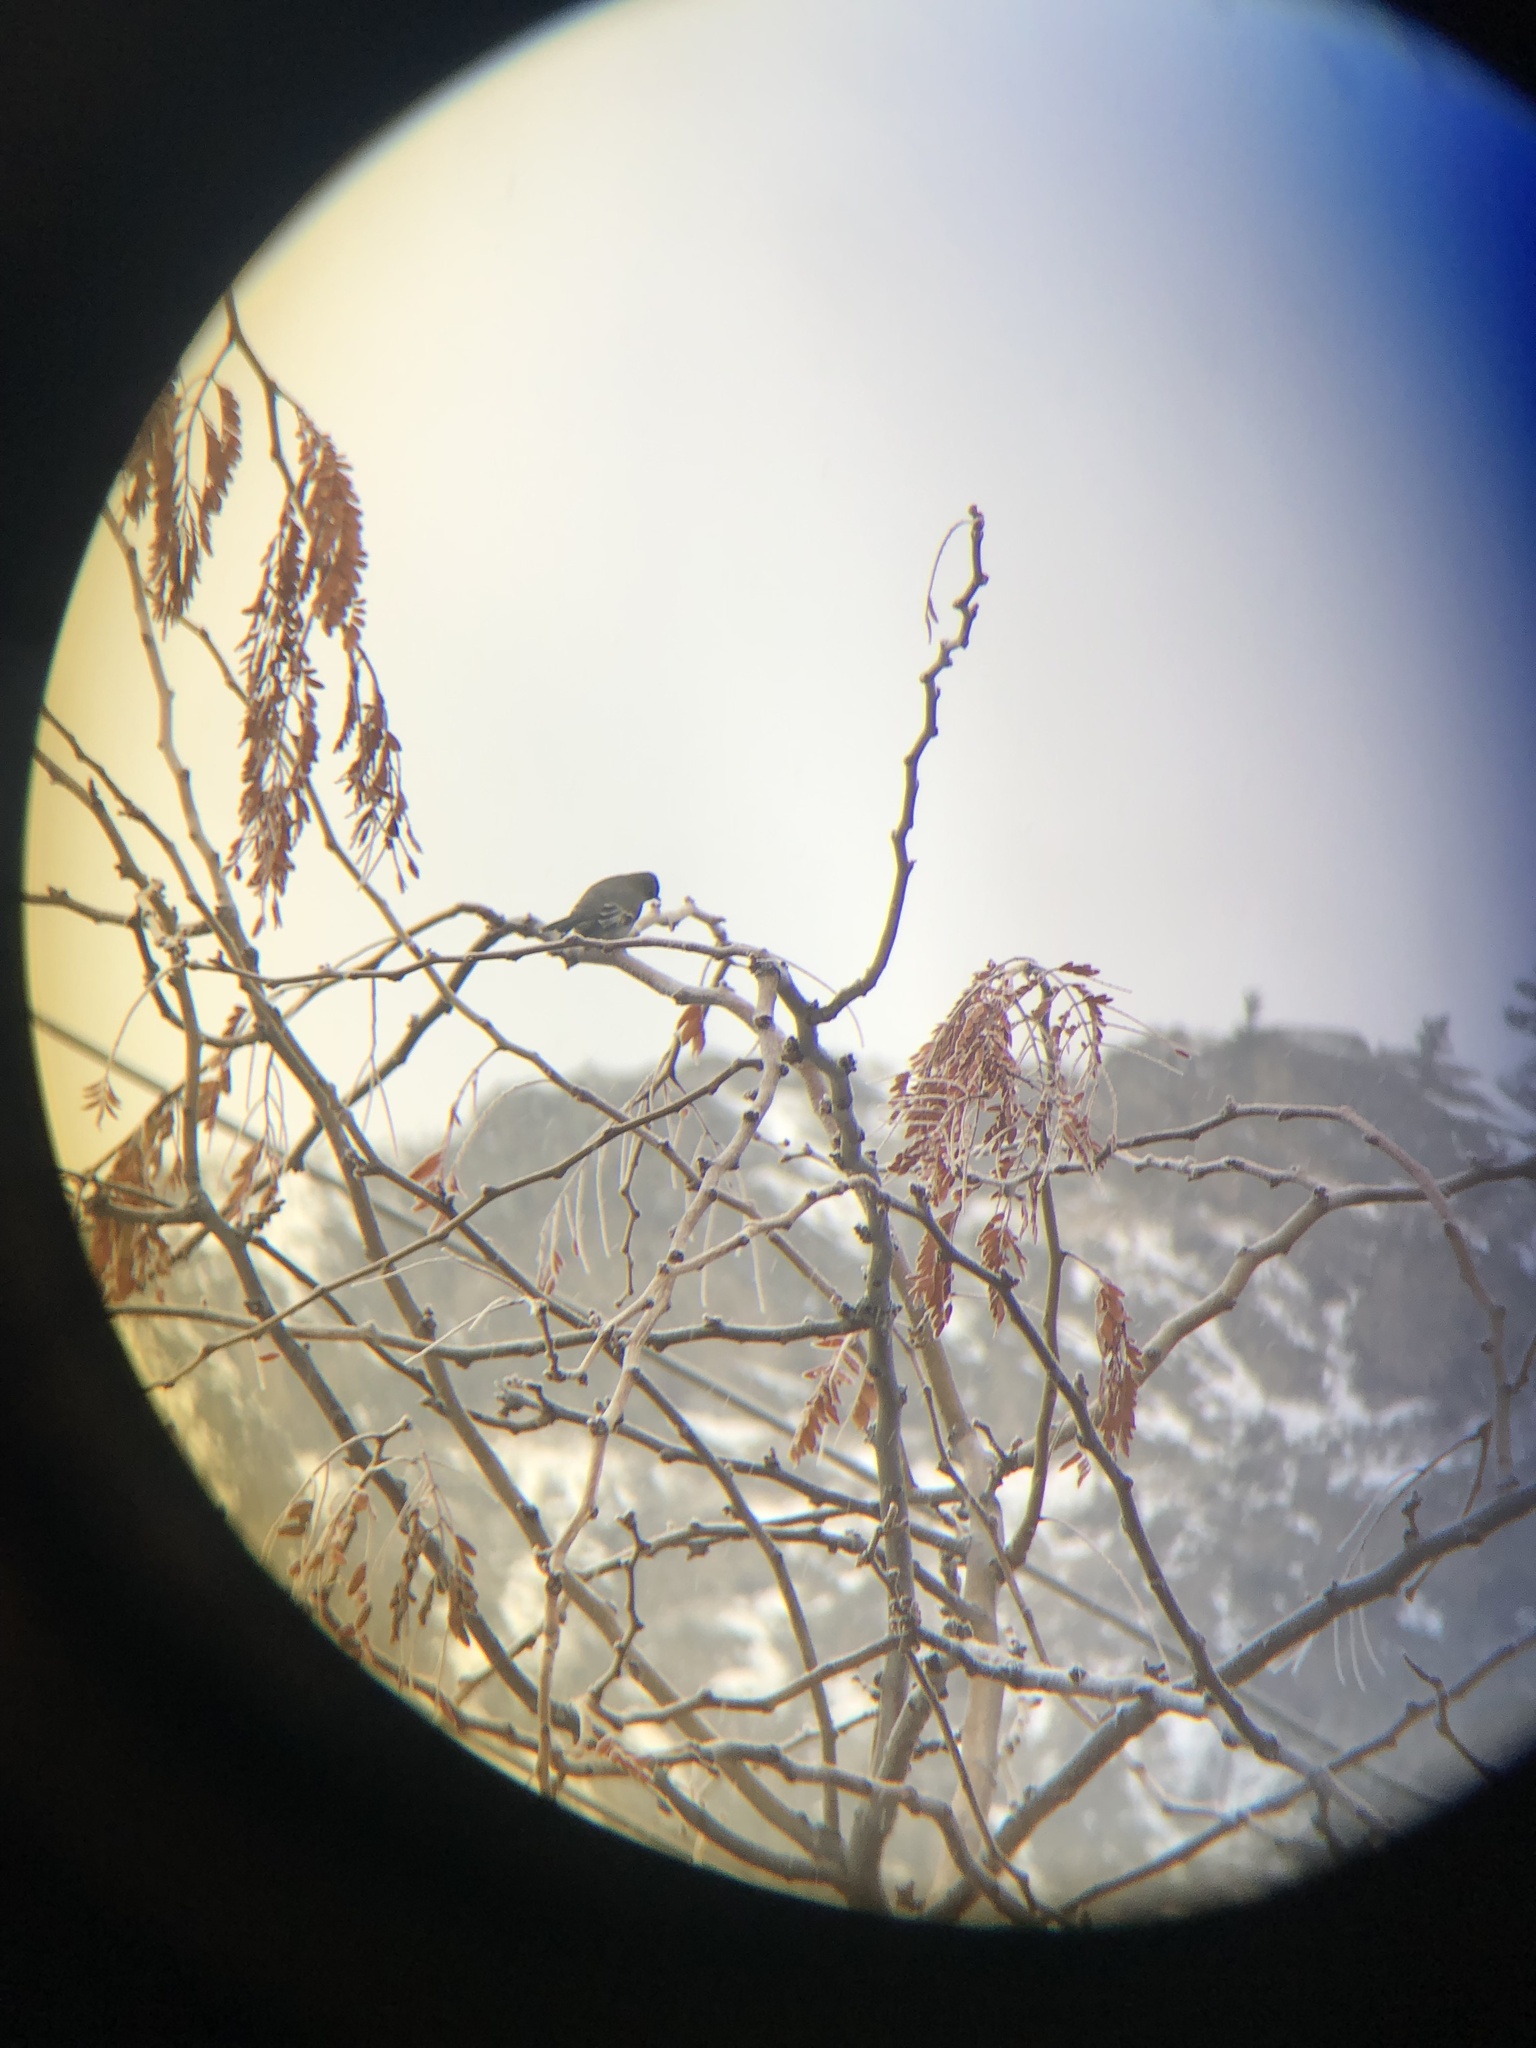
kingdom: Animalia
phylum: Chordata
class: Aves
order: Passeriformes
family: Turdidae
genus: Myadestes
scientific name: Myadestes townsendi
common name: Townsend's solitaire
